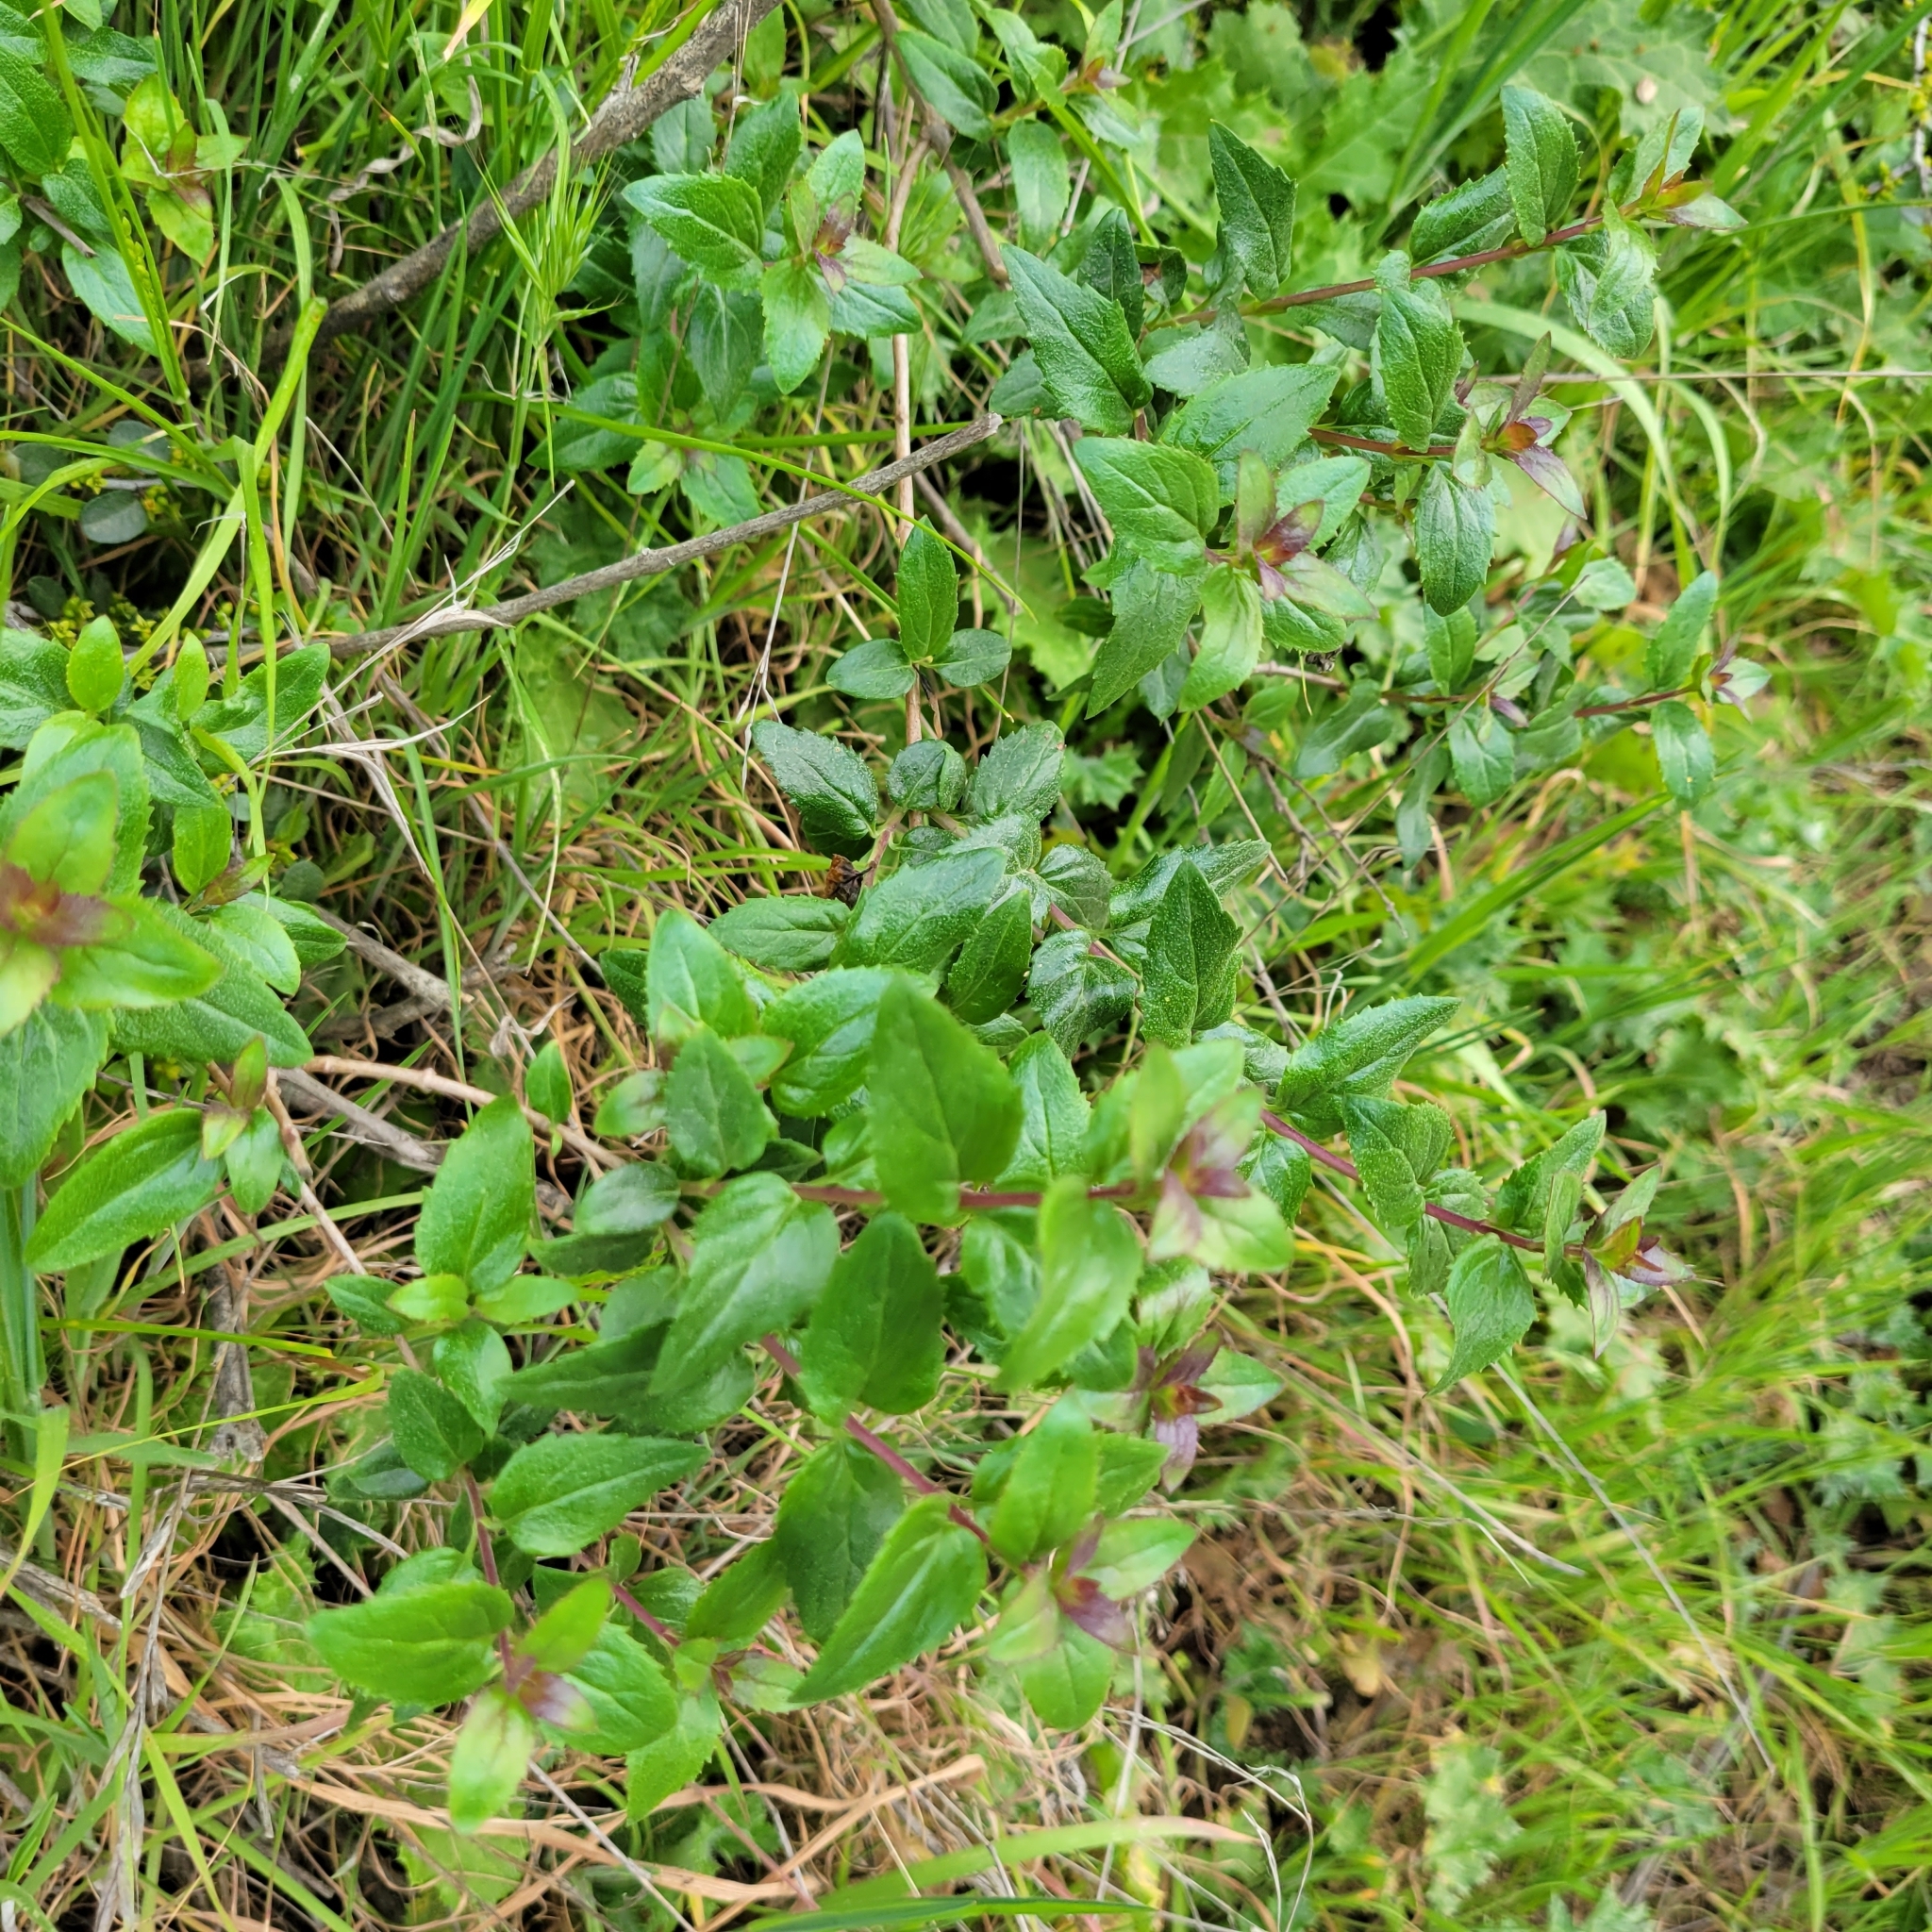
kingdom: Plantae
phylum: Tracheophyta
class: Magnoliopsida
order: Lamiales
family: Plantaginaceae
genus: Keckiella
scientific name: Keckiella cordifolia
